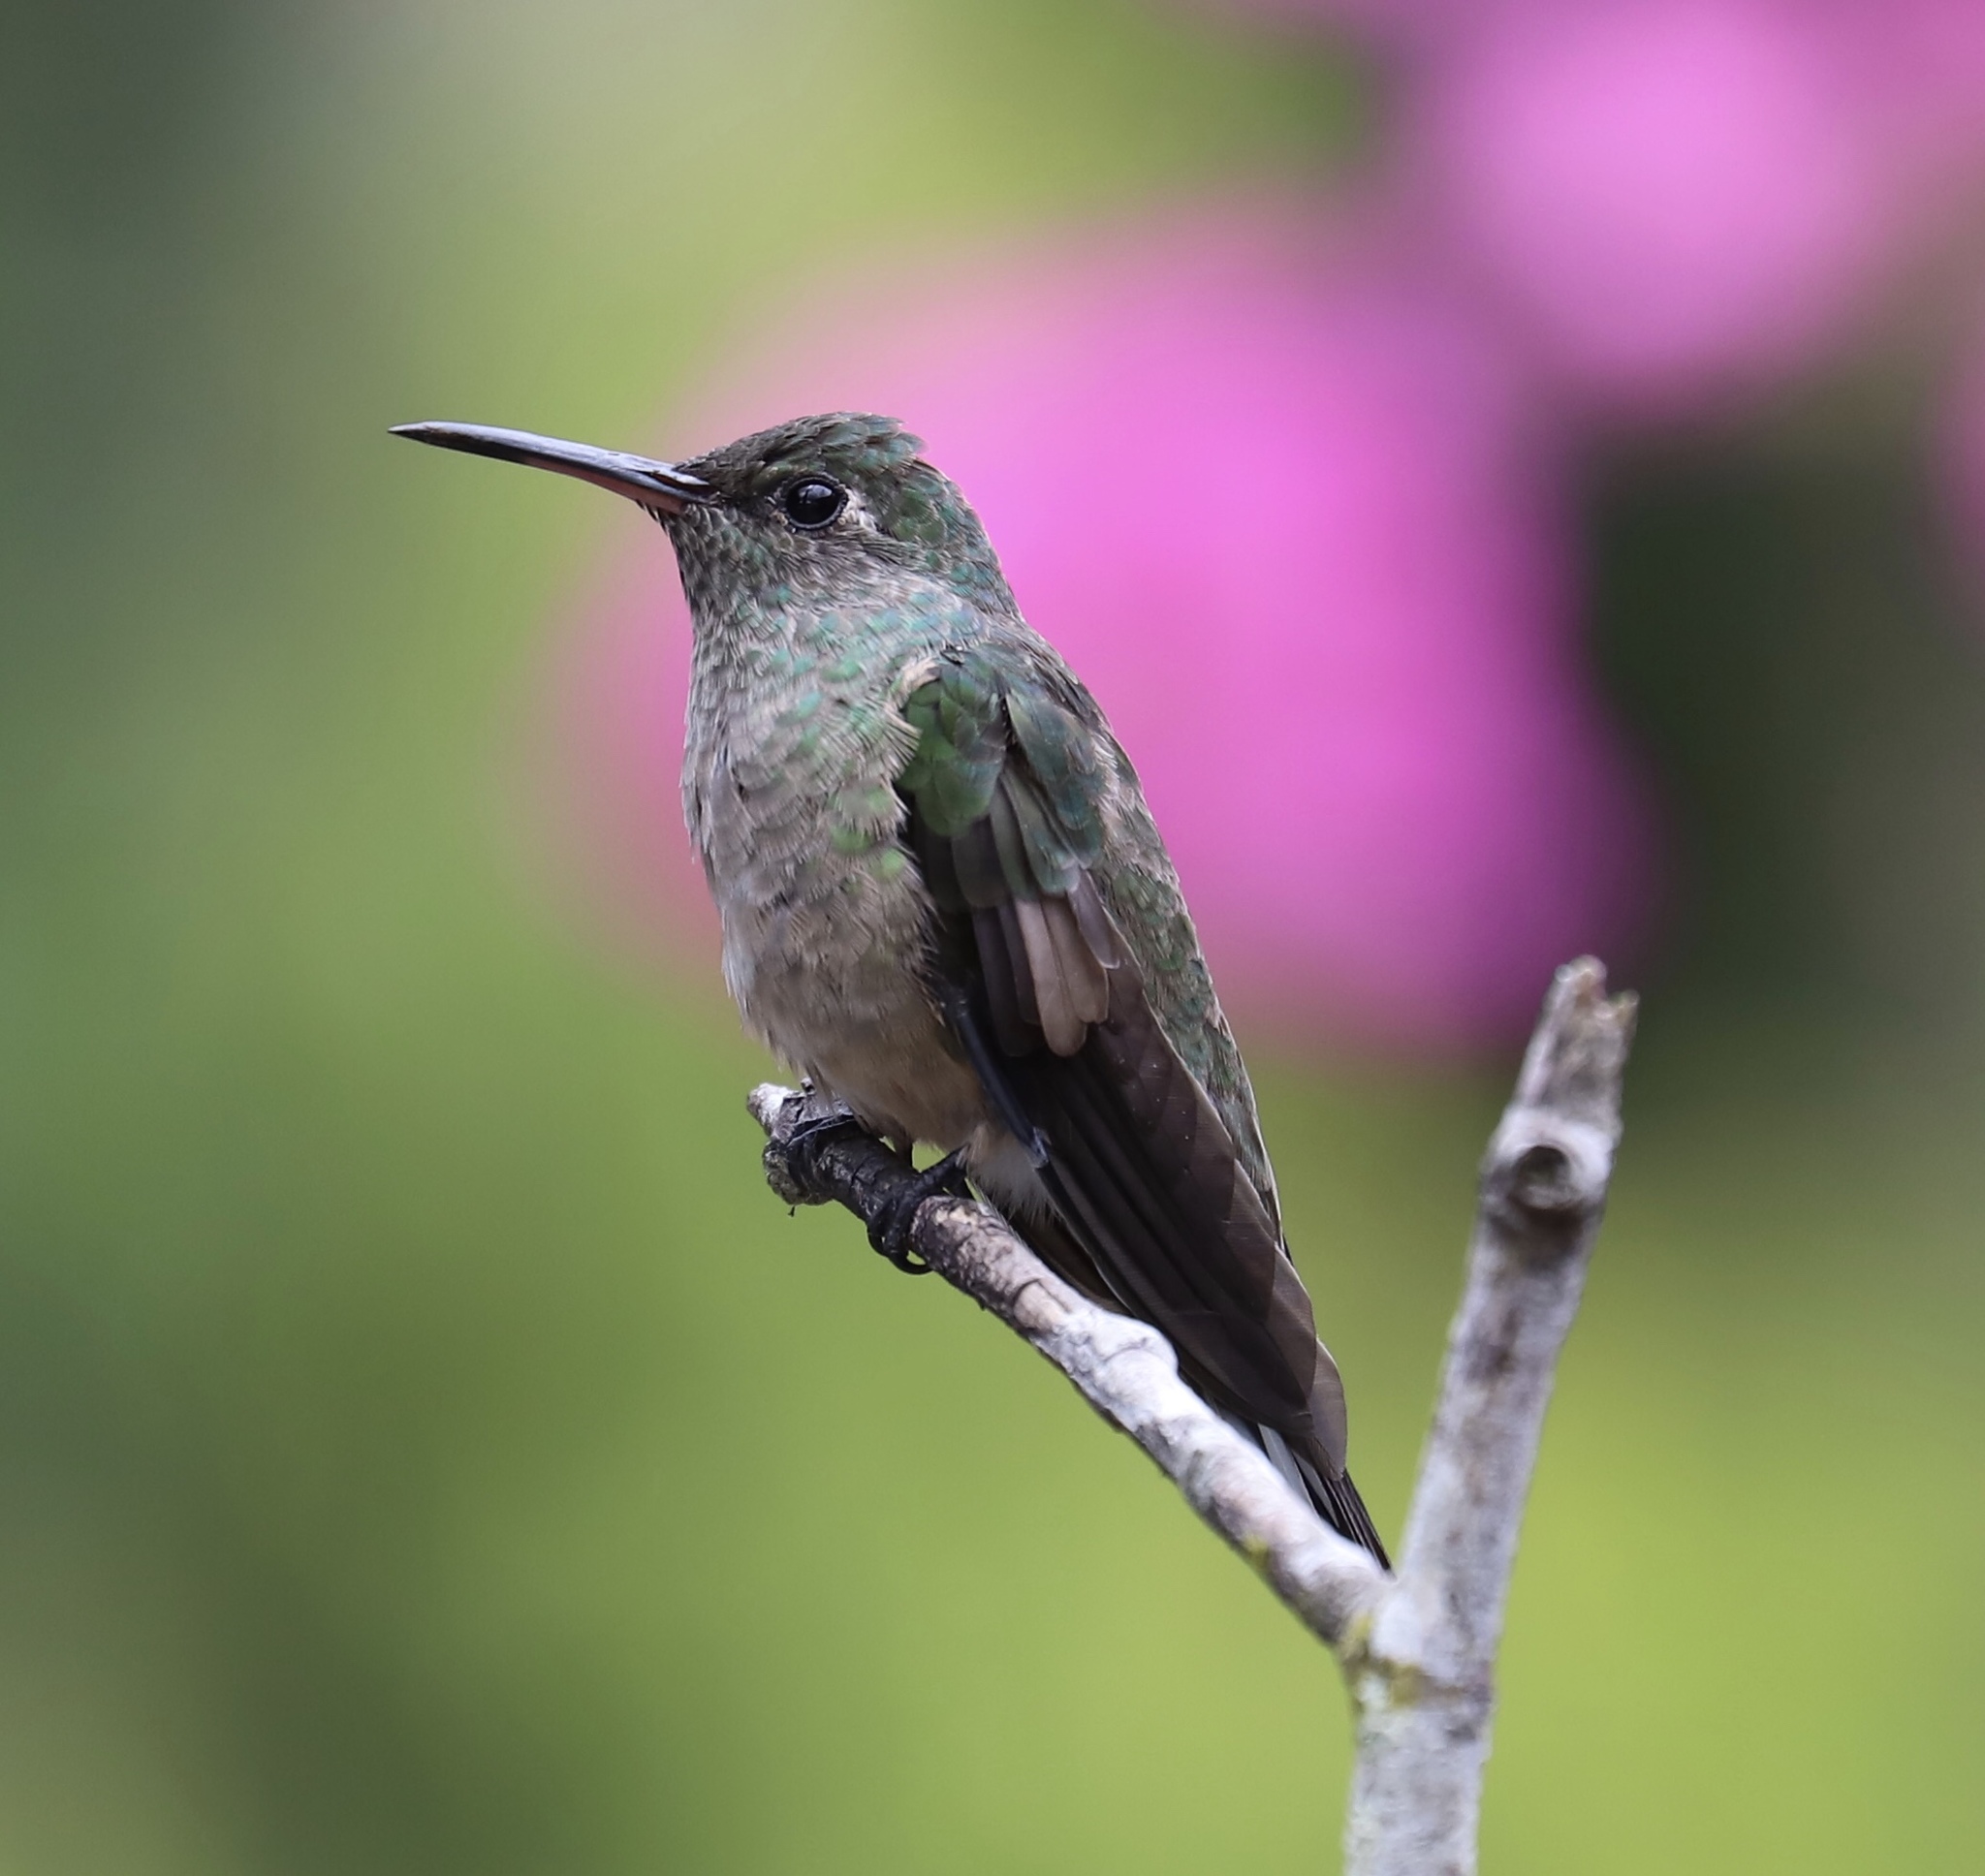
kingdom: Animalia
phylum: Chordata
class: Aves
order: Apodiformes
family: Trochilidae
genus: Phaeochroa
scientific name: Phaeochroa cuvierii
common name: Scaly-breasted hummingbird
